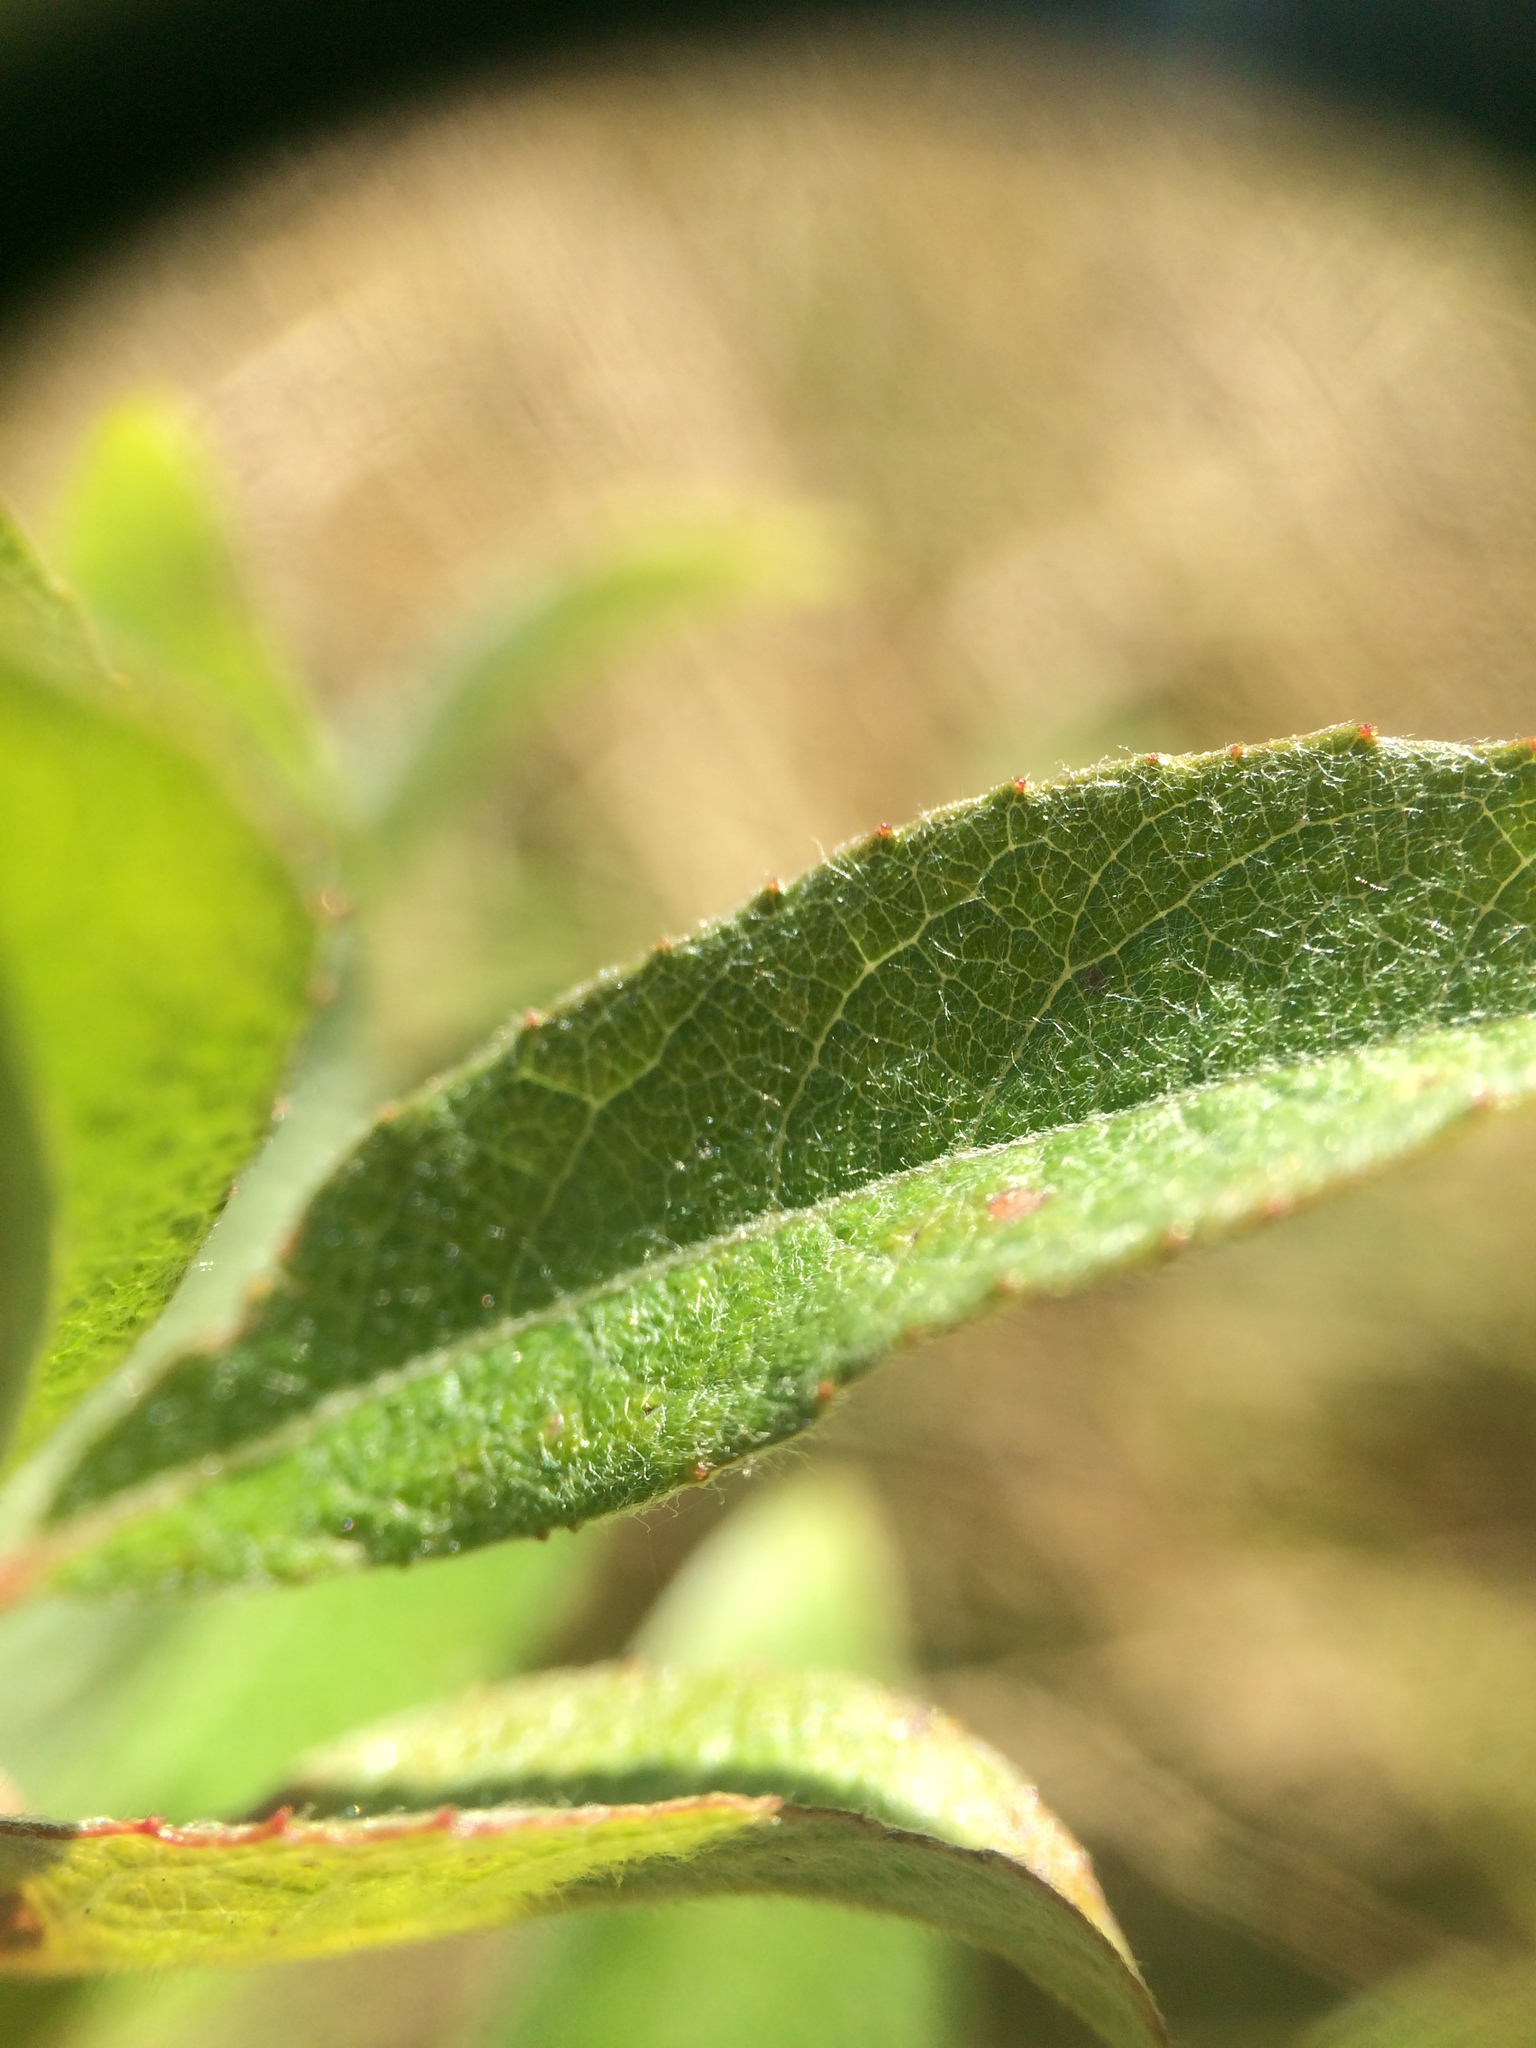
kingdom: Plantae
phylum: Tracheophyta
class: Magnoliopsida
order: Malpighiales
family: Salicaceae
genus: Salix
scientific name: Salix bebbiana
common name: Bebb's willow
